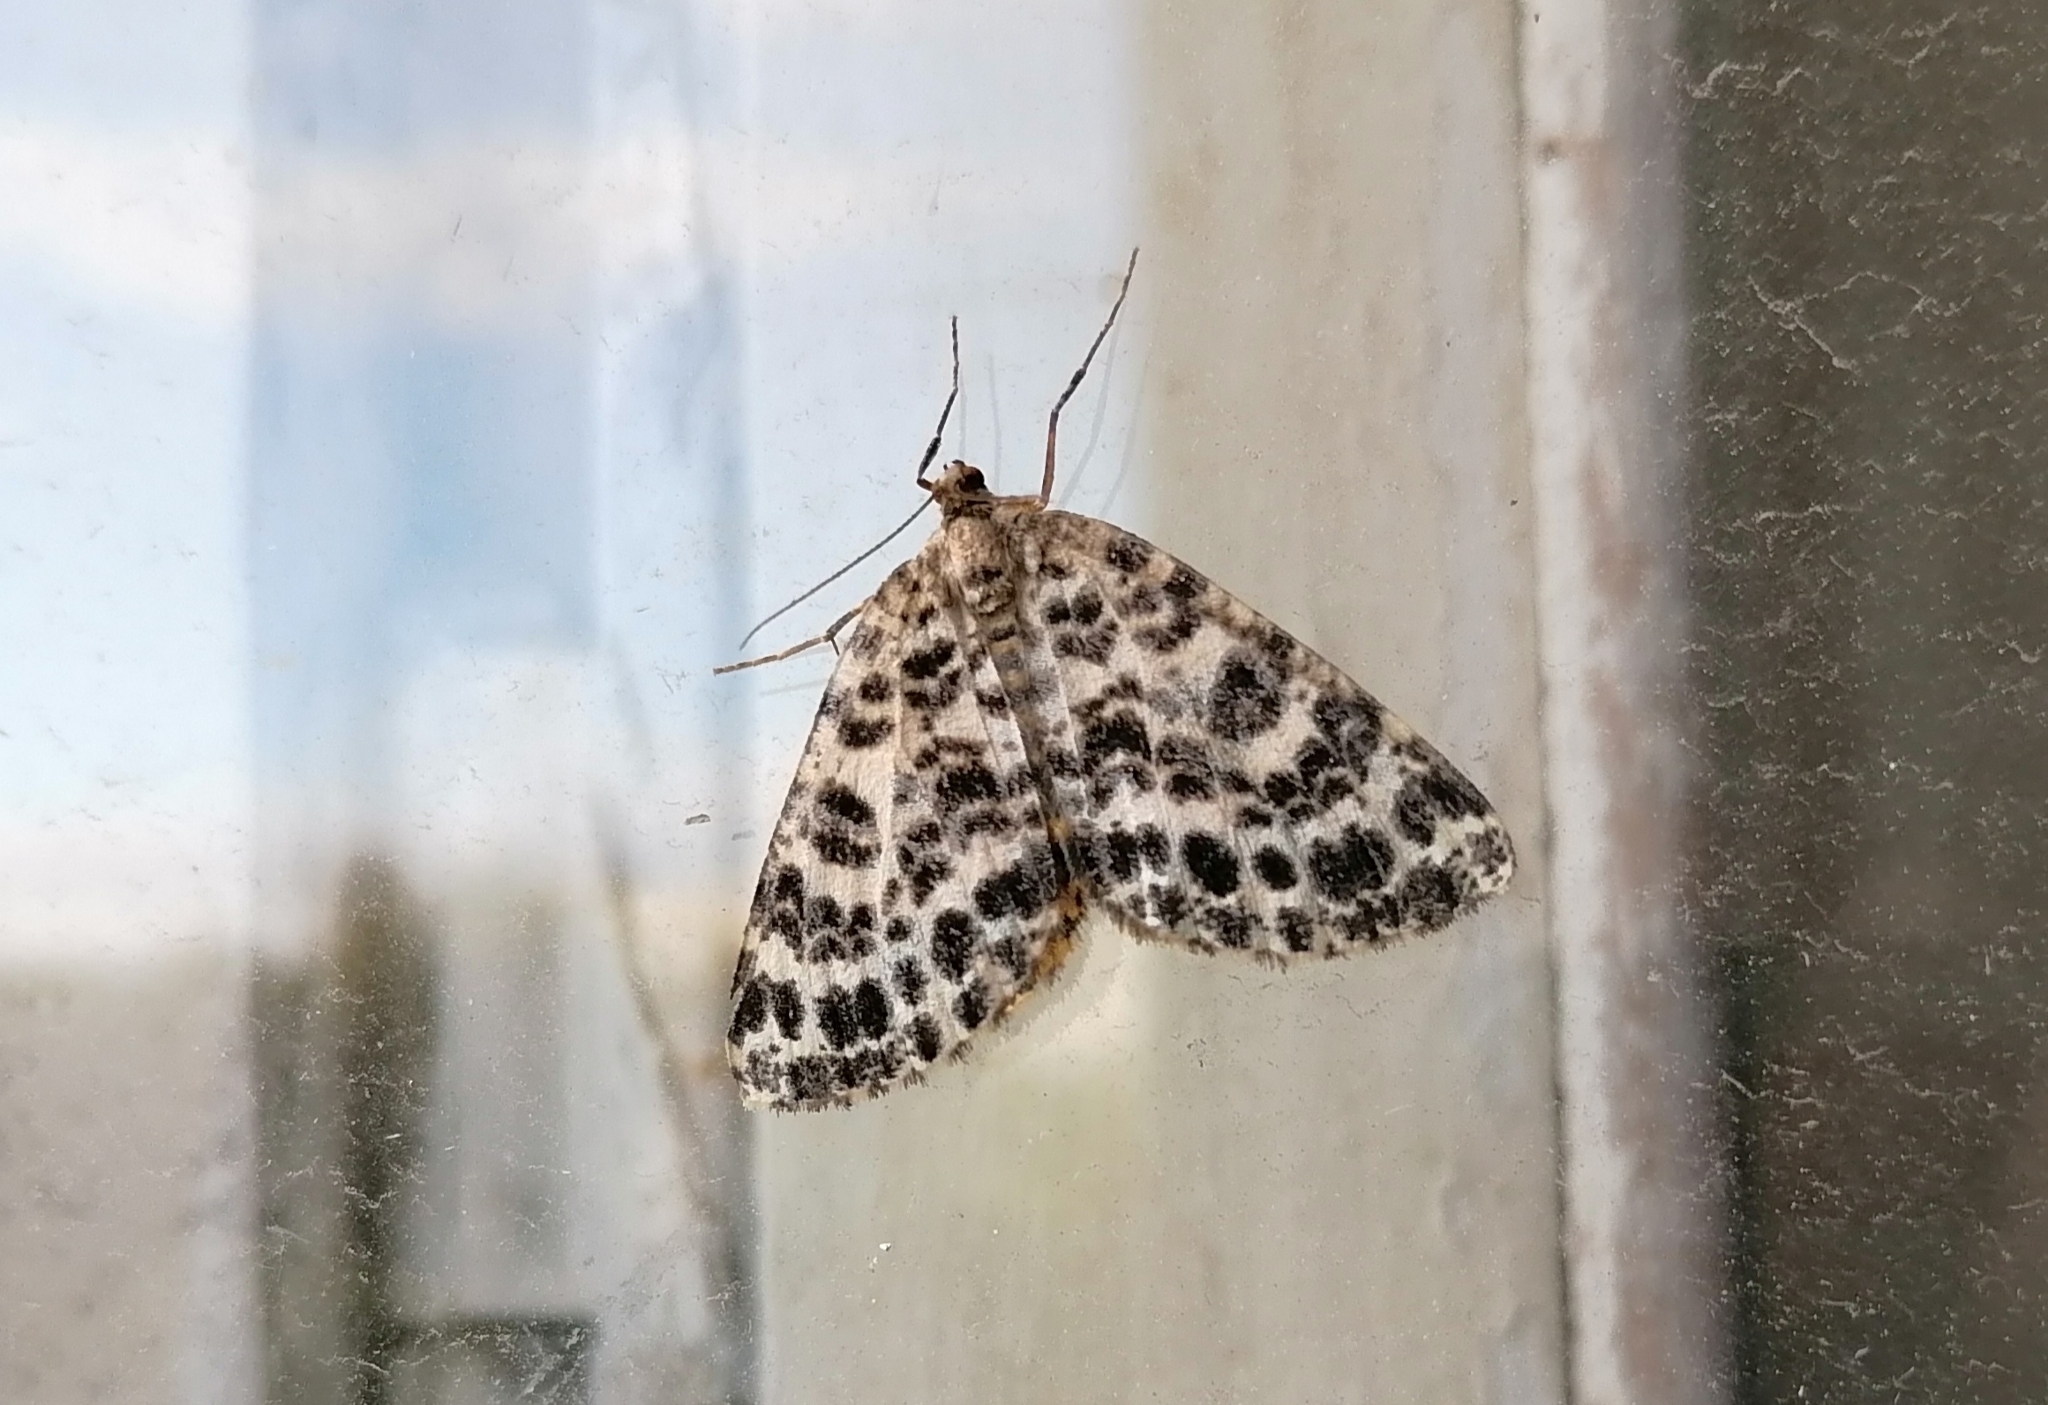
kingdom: Animalia
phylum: Arthropoda
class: Insecta
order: Lepidoptera
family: Geometridae
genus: Arichanna
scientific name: Arichanna melanaria
